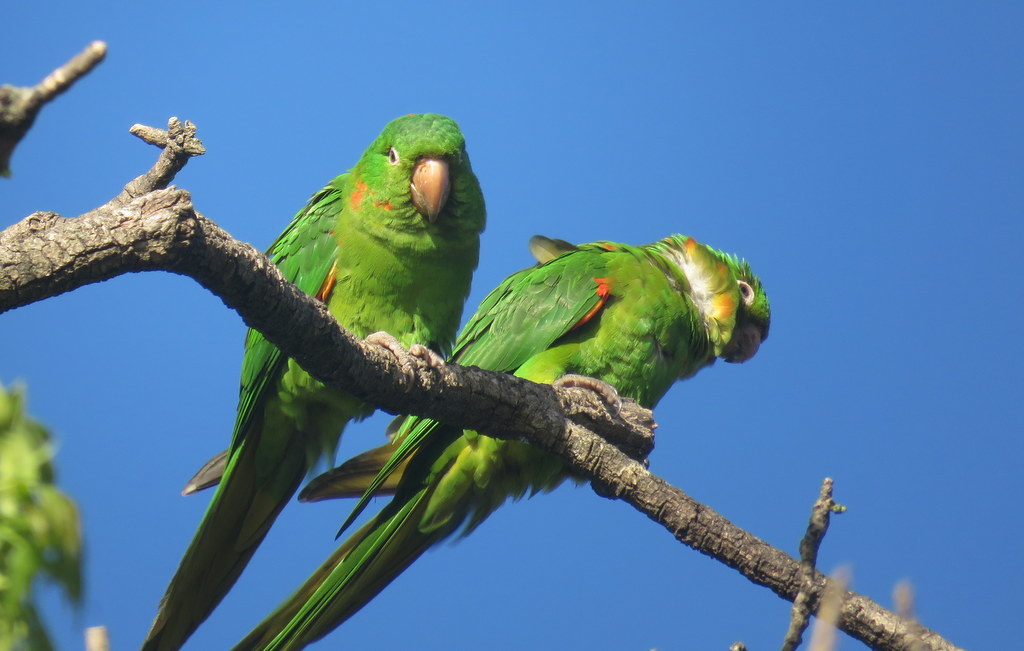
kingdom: Animalia
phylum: Chordata
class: Aves
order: Psittaciformes
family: Psittacidae
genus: Aratinga
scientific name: Aratinga leucophthalma
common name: White-eyed parakeet
